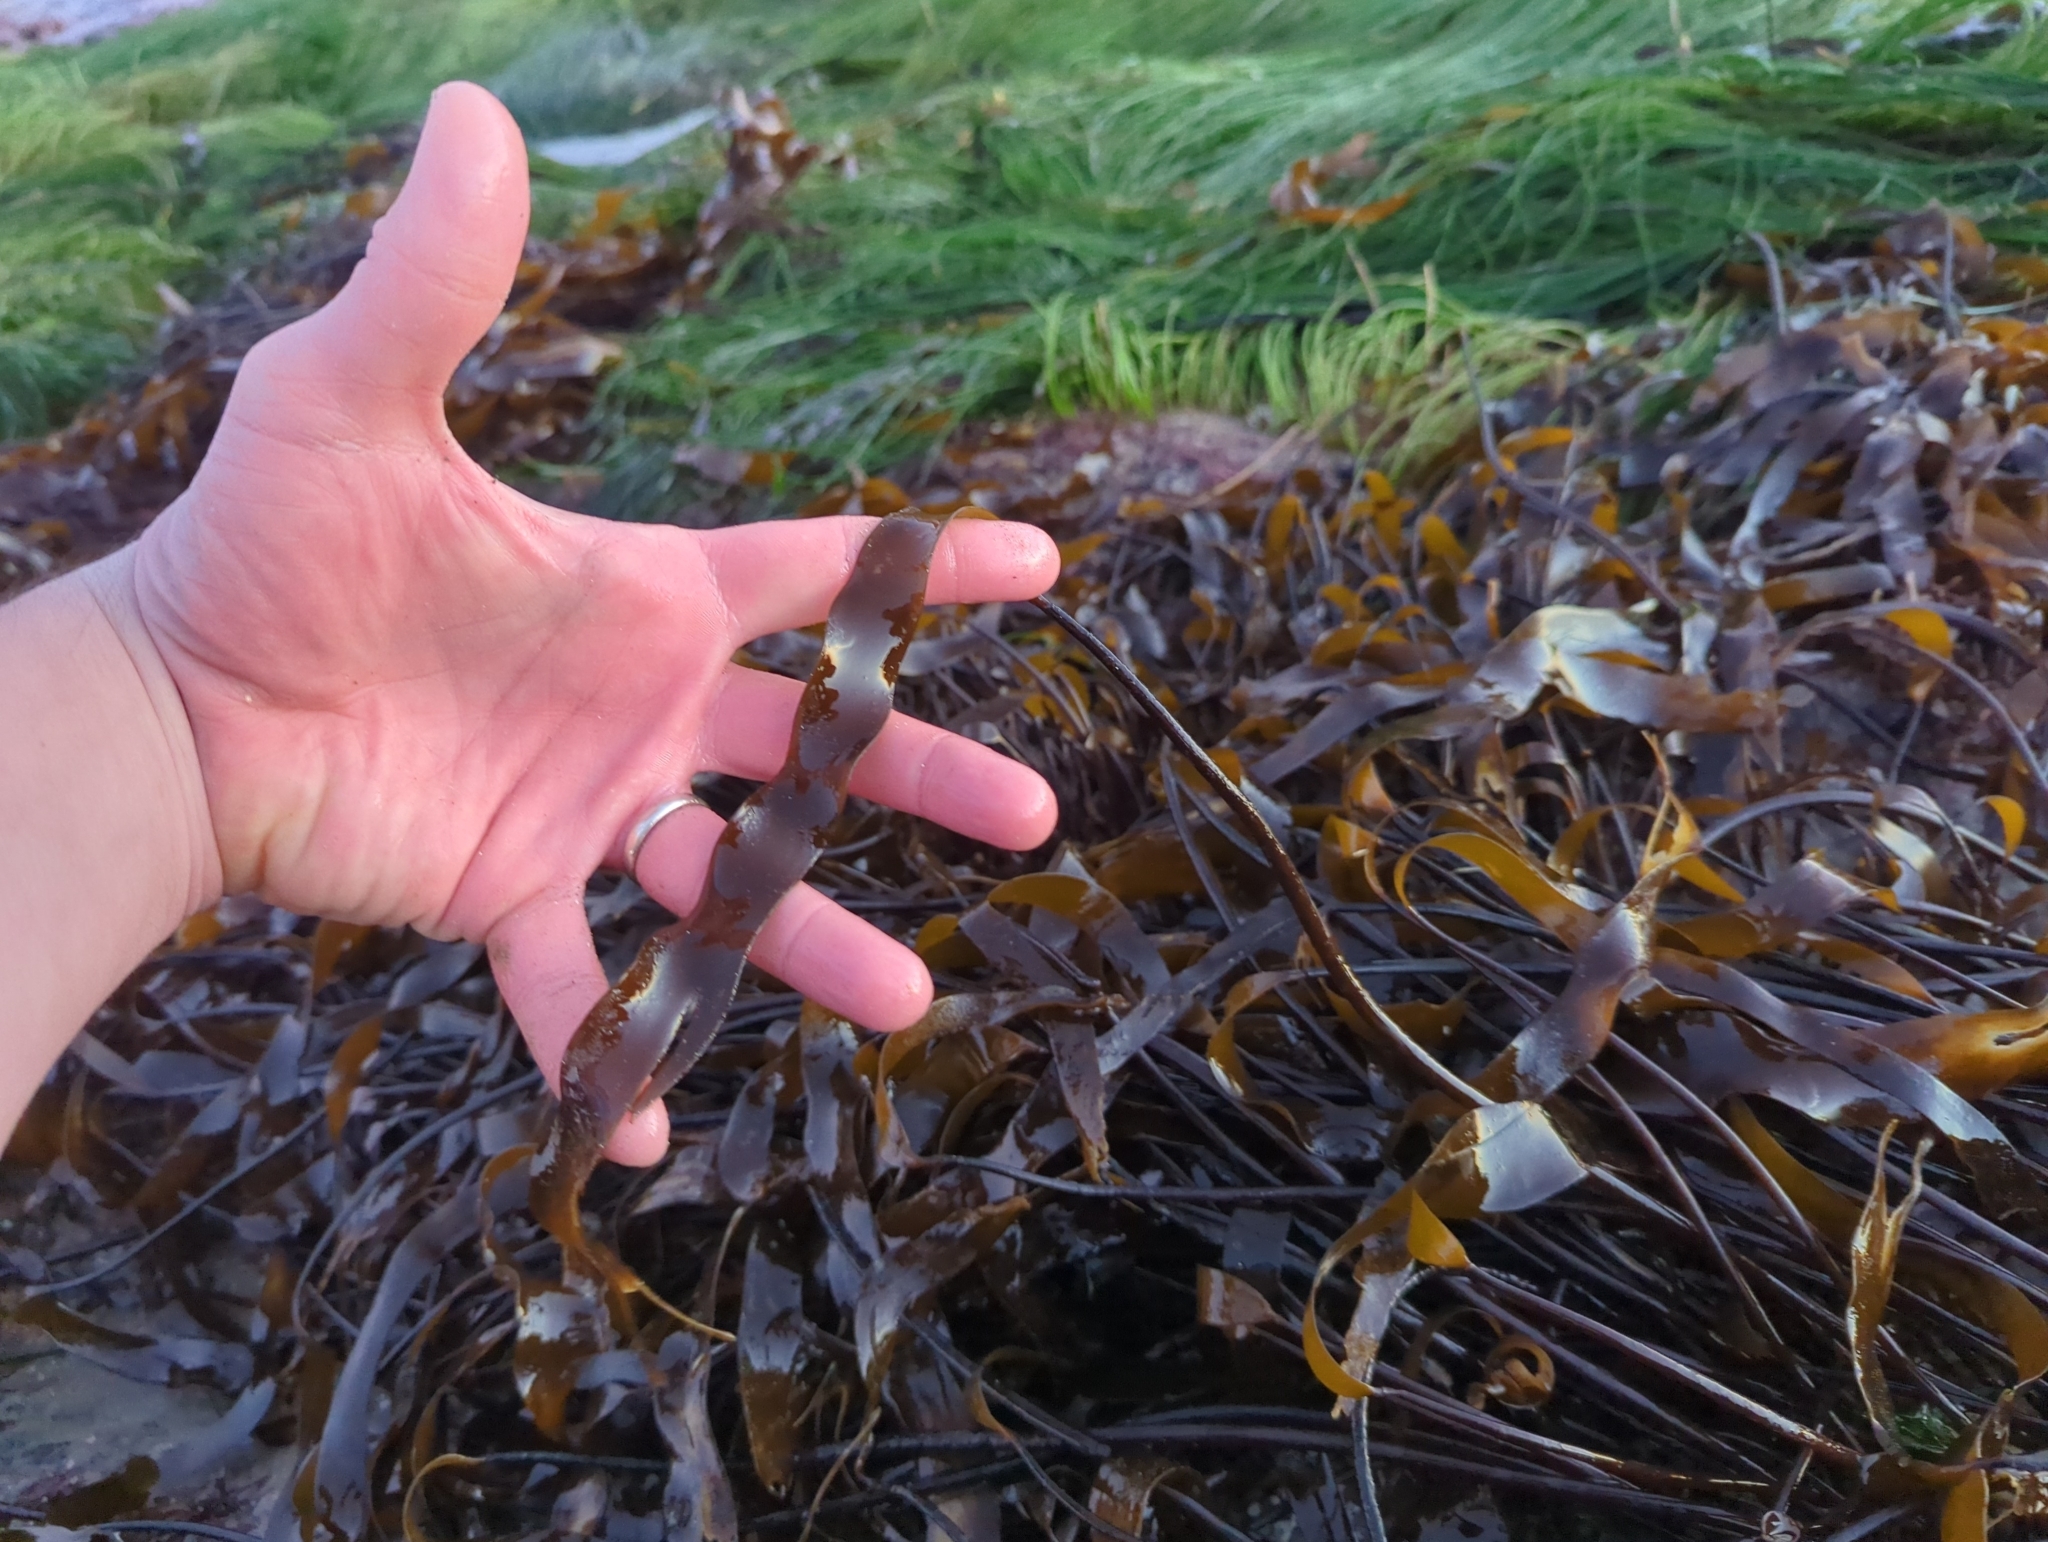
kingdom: Chromista
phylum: Ochrophyta
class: Phaeophyceae
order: Laminariales
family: Laminariaceae
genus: Laminaria
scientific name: Laminaria sinclairii
